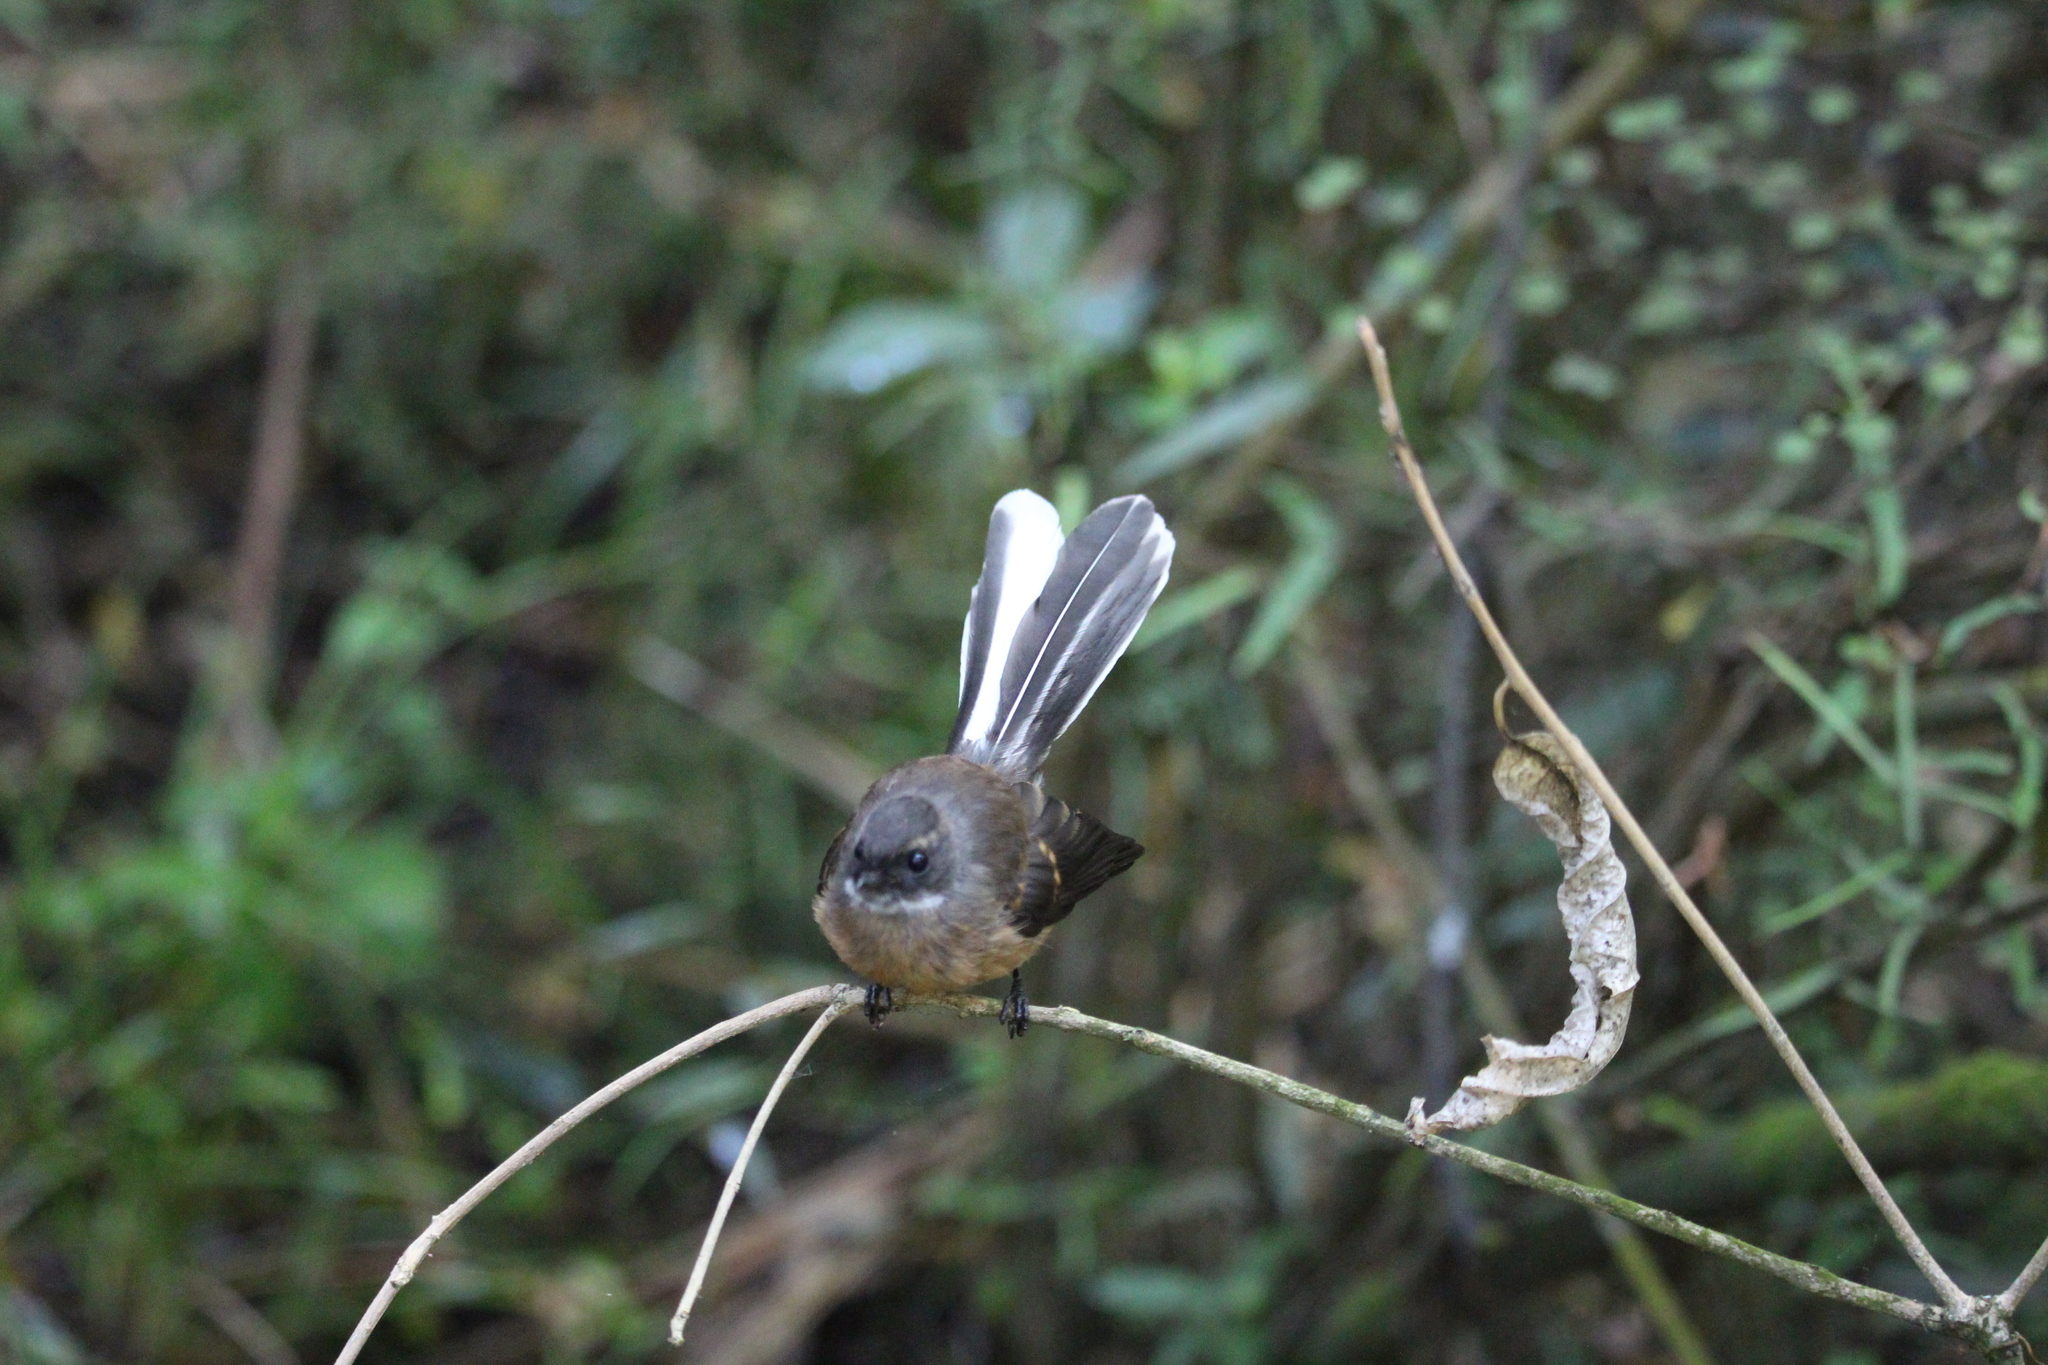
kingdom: Animalia
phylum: Chordata
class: Aves
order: Passeriformes
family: Rhipiduridae
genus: Rhipidura
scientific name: Rhipidura fuliginosa
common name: New zealand fantail
